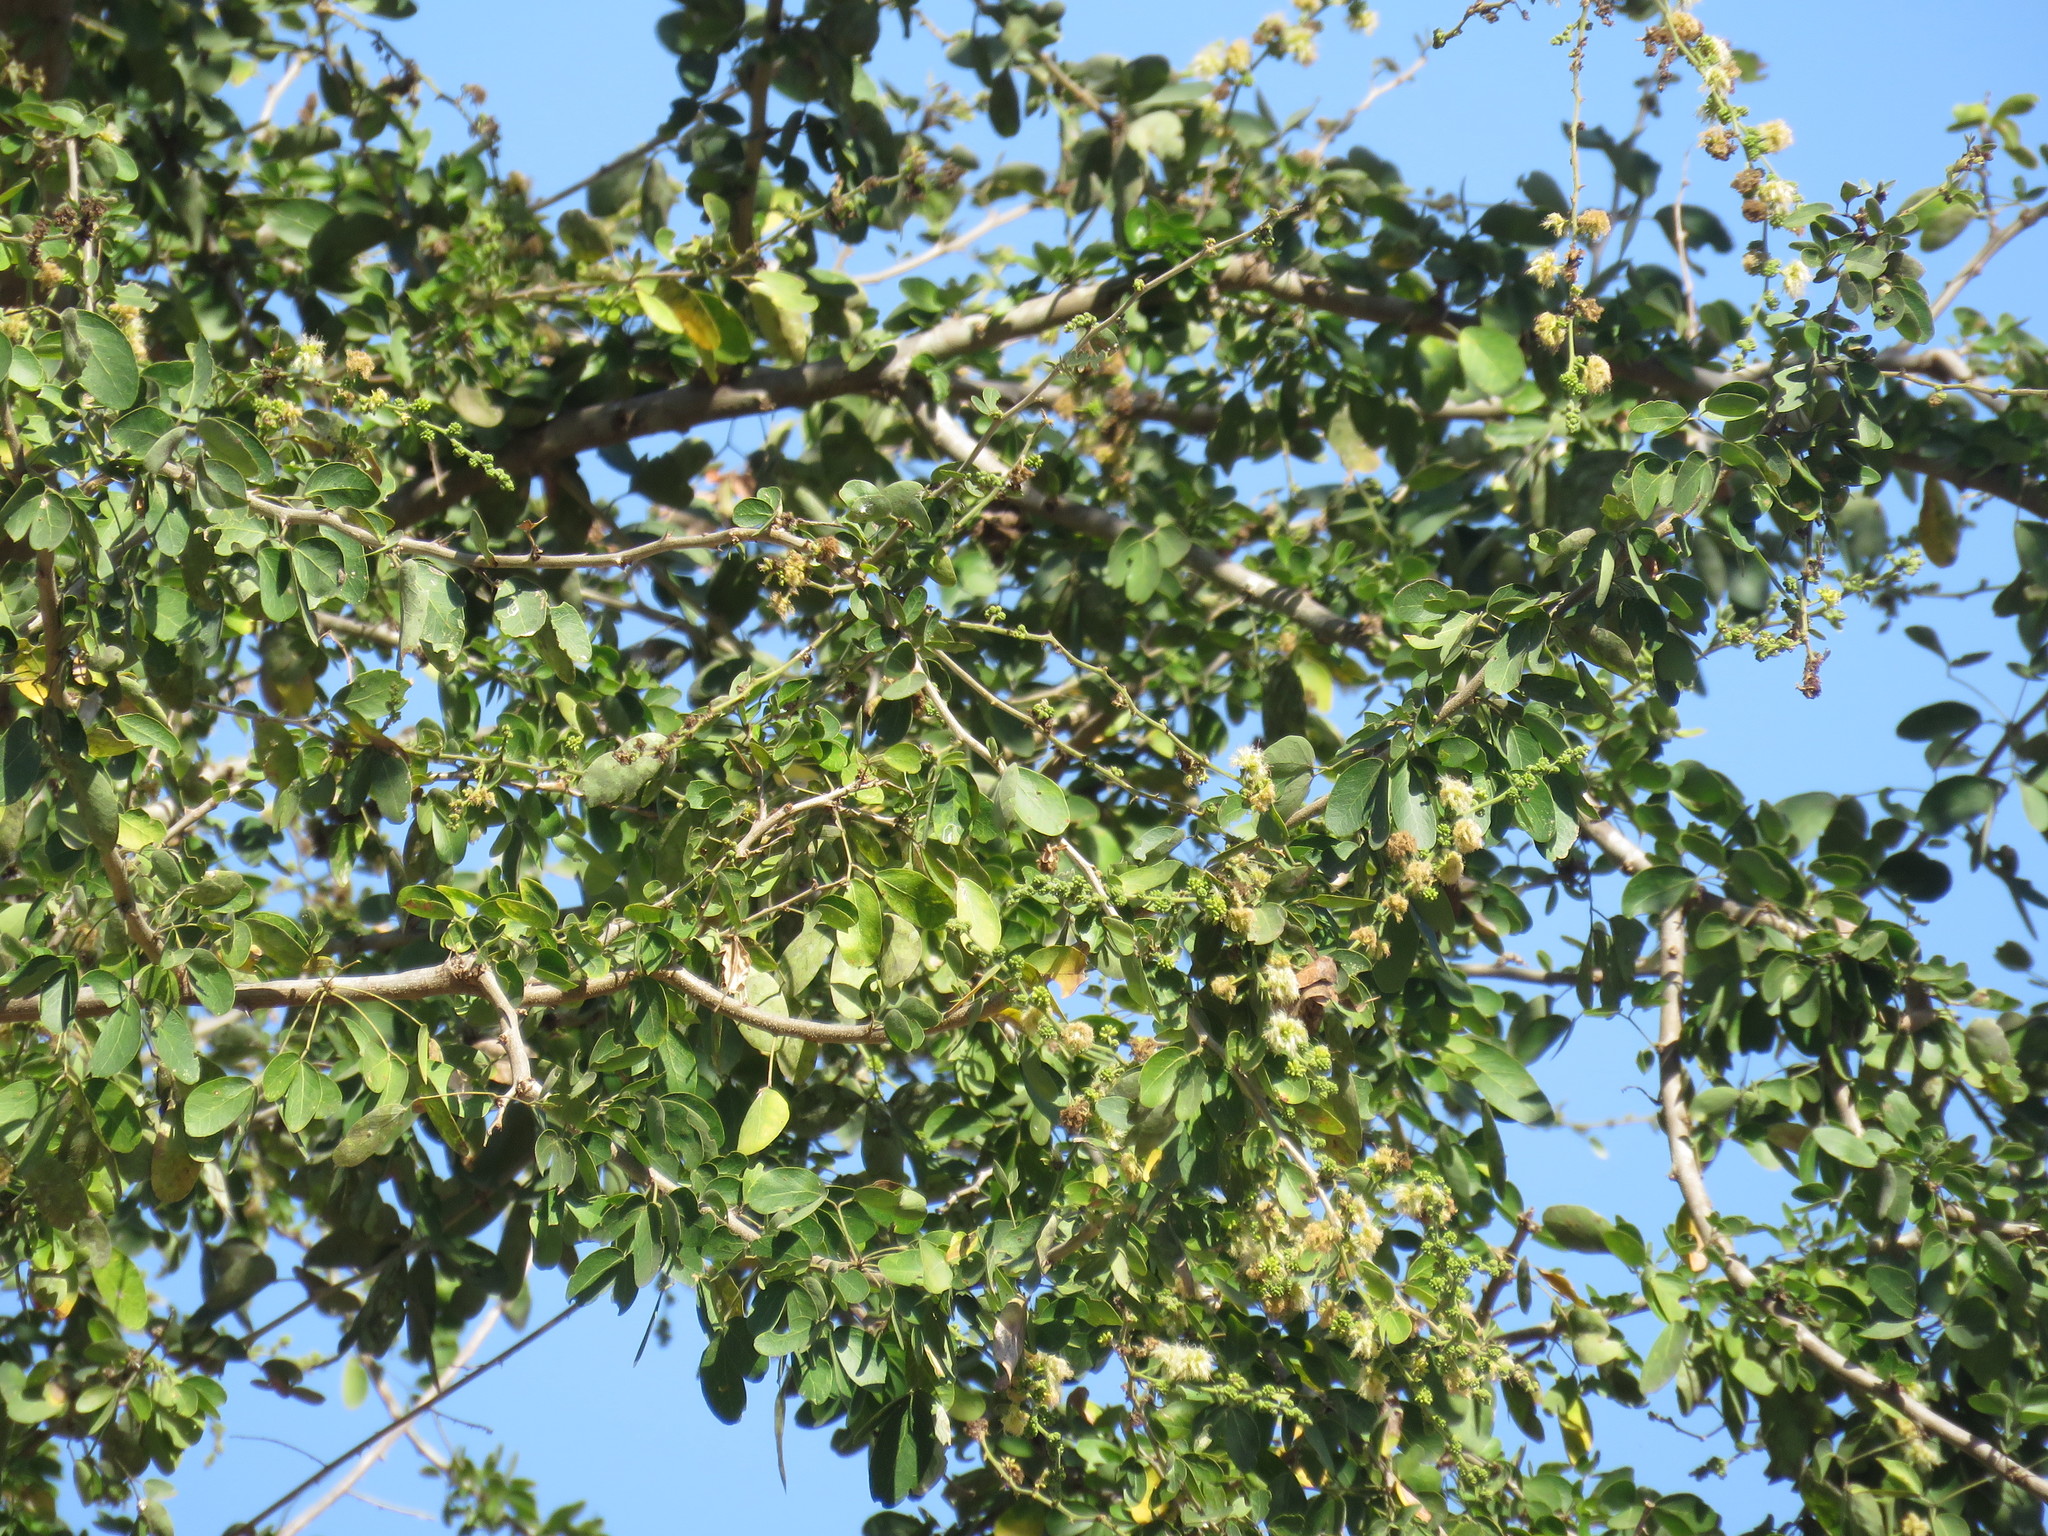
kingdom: Plantae
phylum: Tracheophyta
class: Magnoliopsida
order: Fabales
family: Fabaceae
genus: Pithecellobium
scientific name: Pithecellobium dulce
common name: Monkeypod
